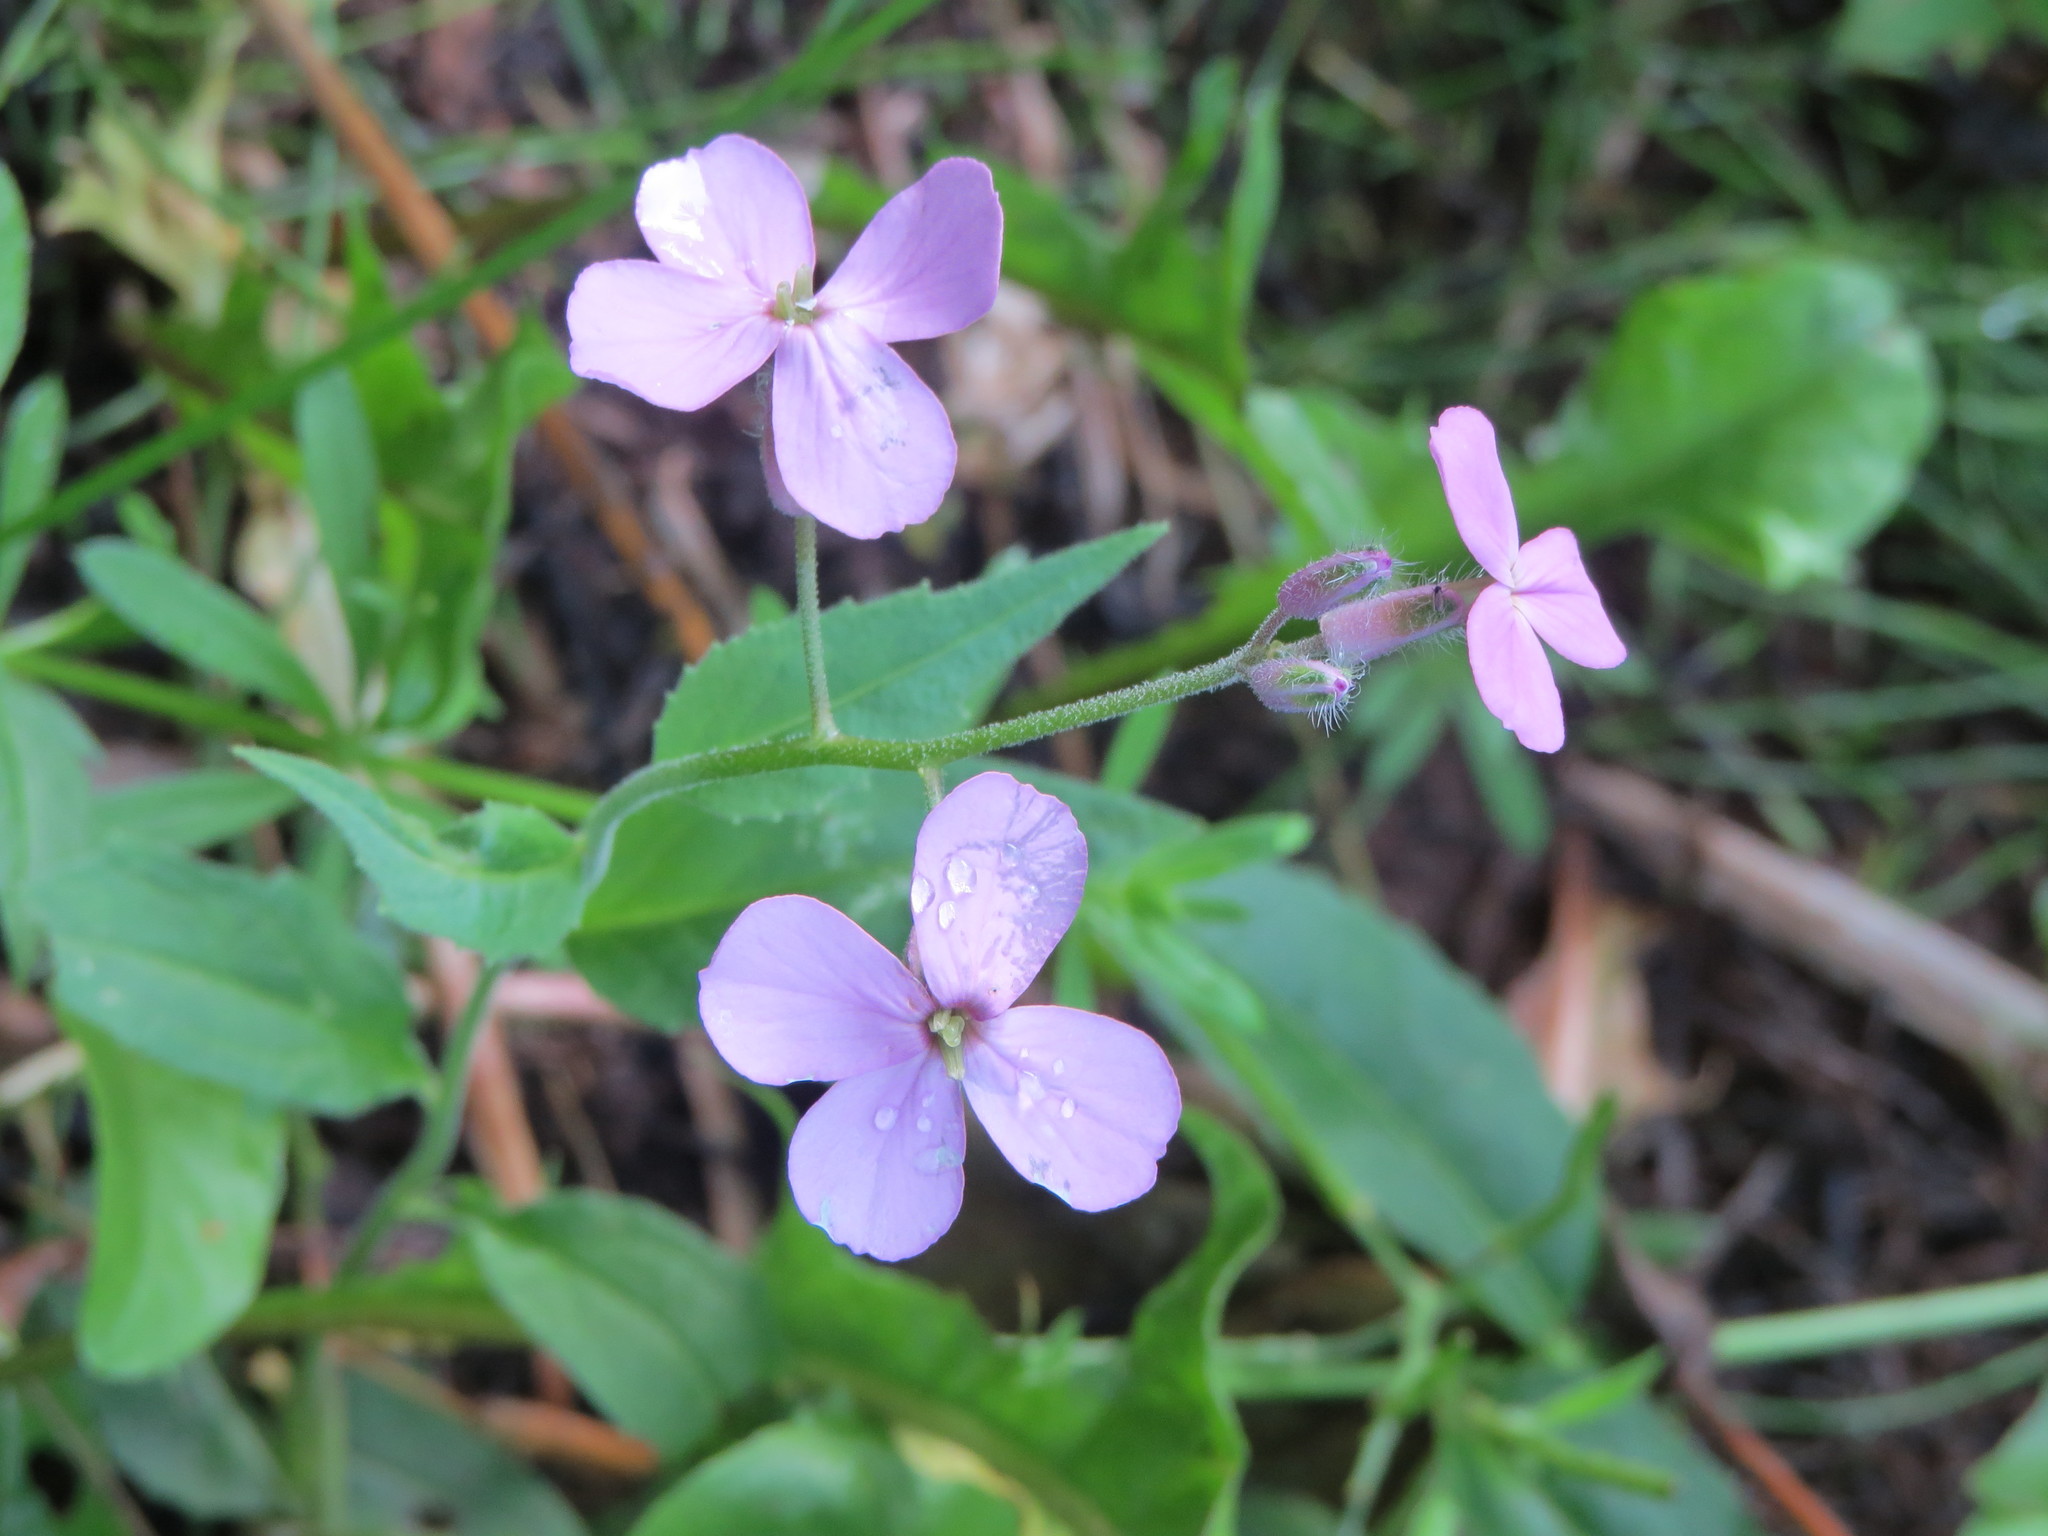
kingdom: Plantae
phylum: Tracheophyta
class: Magnoliopsida
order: Brassicales
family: Brassicaceae
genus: Hesperis
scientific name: Hesperis matronalis
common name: Dame's-violet
